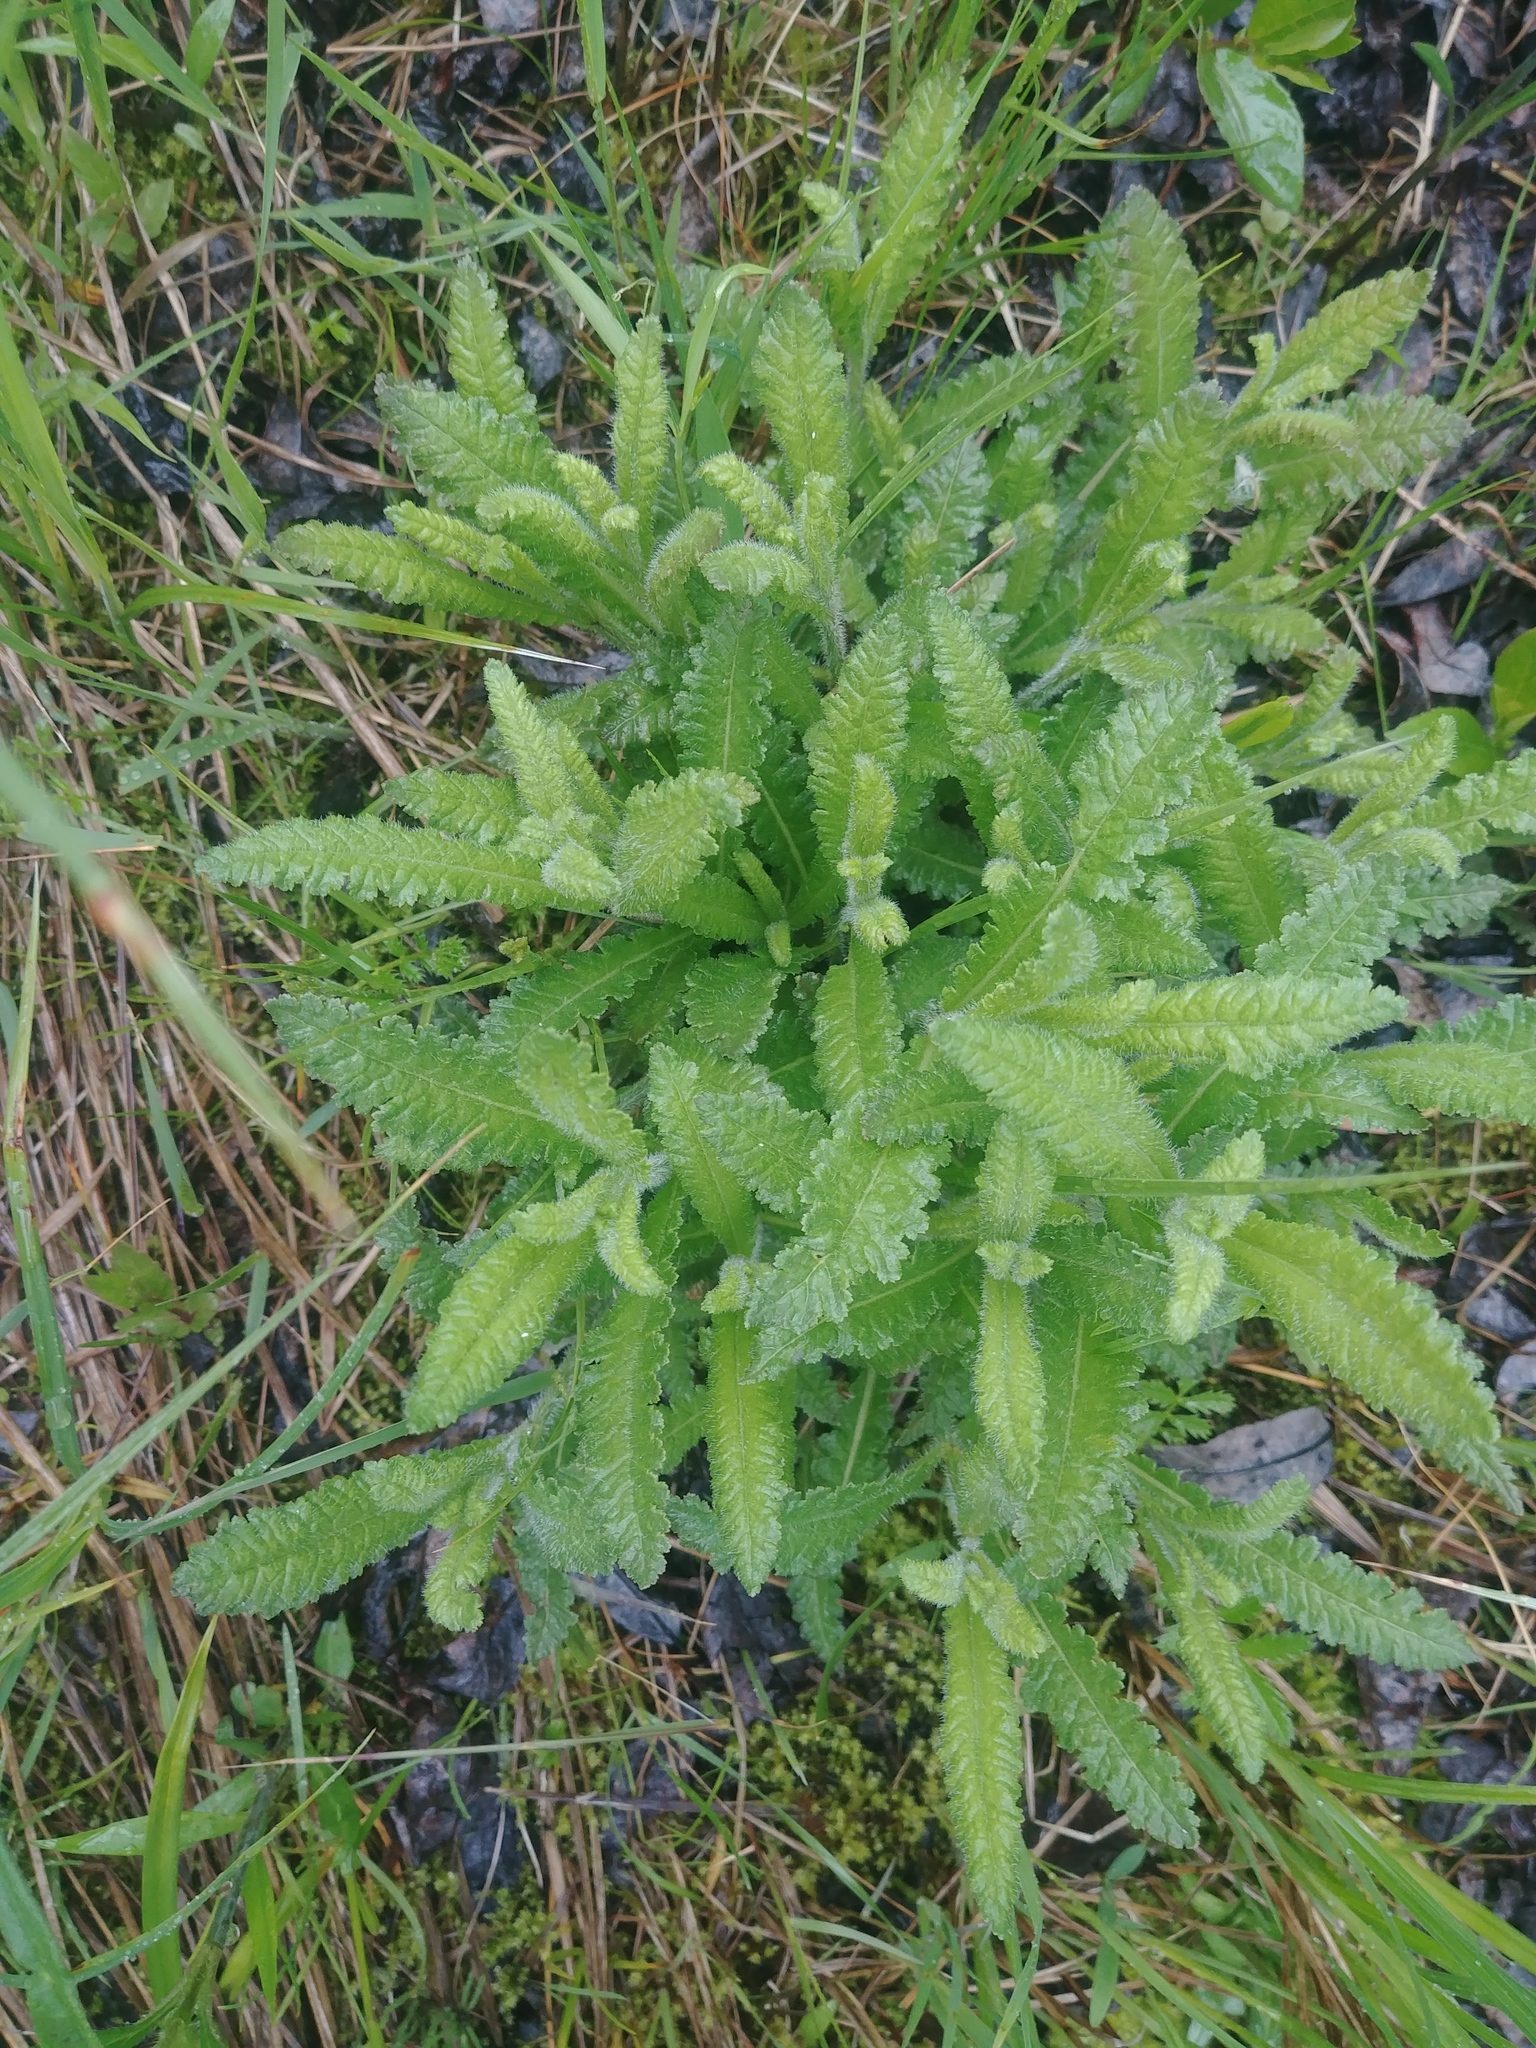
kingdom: Plantae
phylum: Tracheophyta
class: Magnoliopsida
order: Lamiales
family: Orobanchaceae
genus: Pedicularis
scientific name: Pedicularis lanceolata
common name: Swamp lousewort
